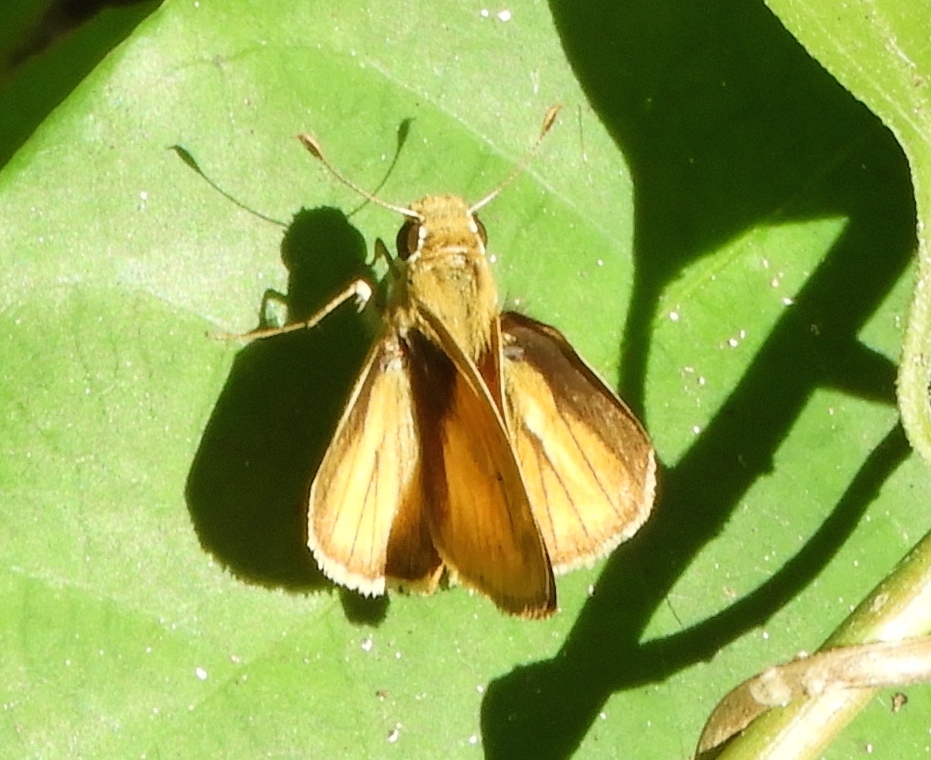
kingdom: Animalia
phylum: Arthropoda
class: Insecta
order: Lepidoptera
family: Hesperiidae
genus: Polites
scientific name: Polites vibex
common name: Whirlabout
